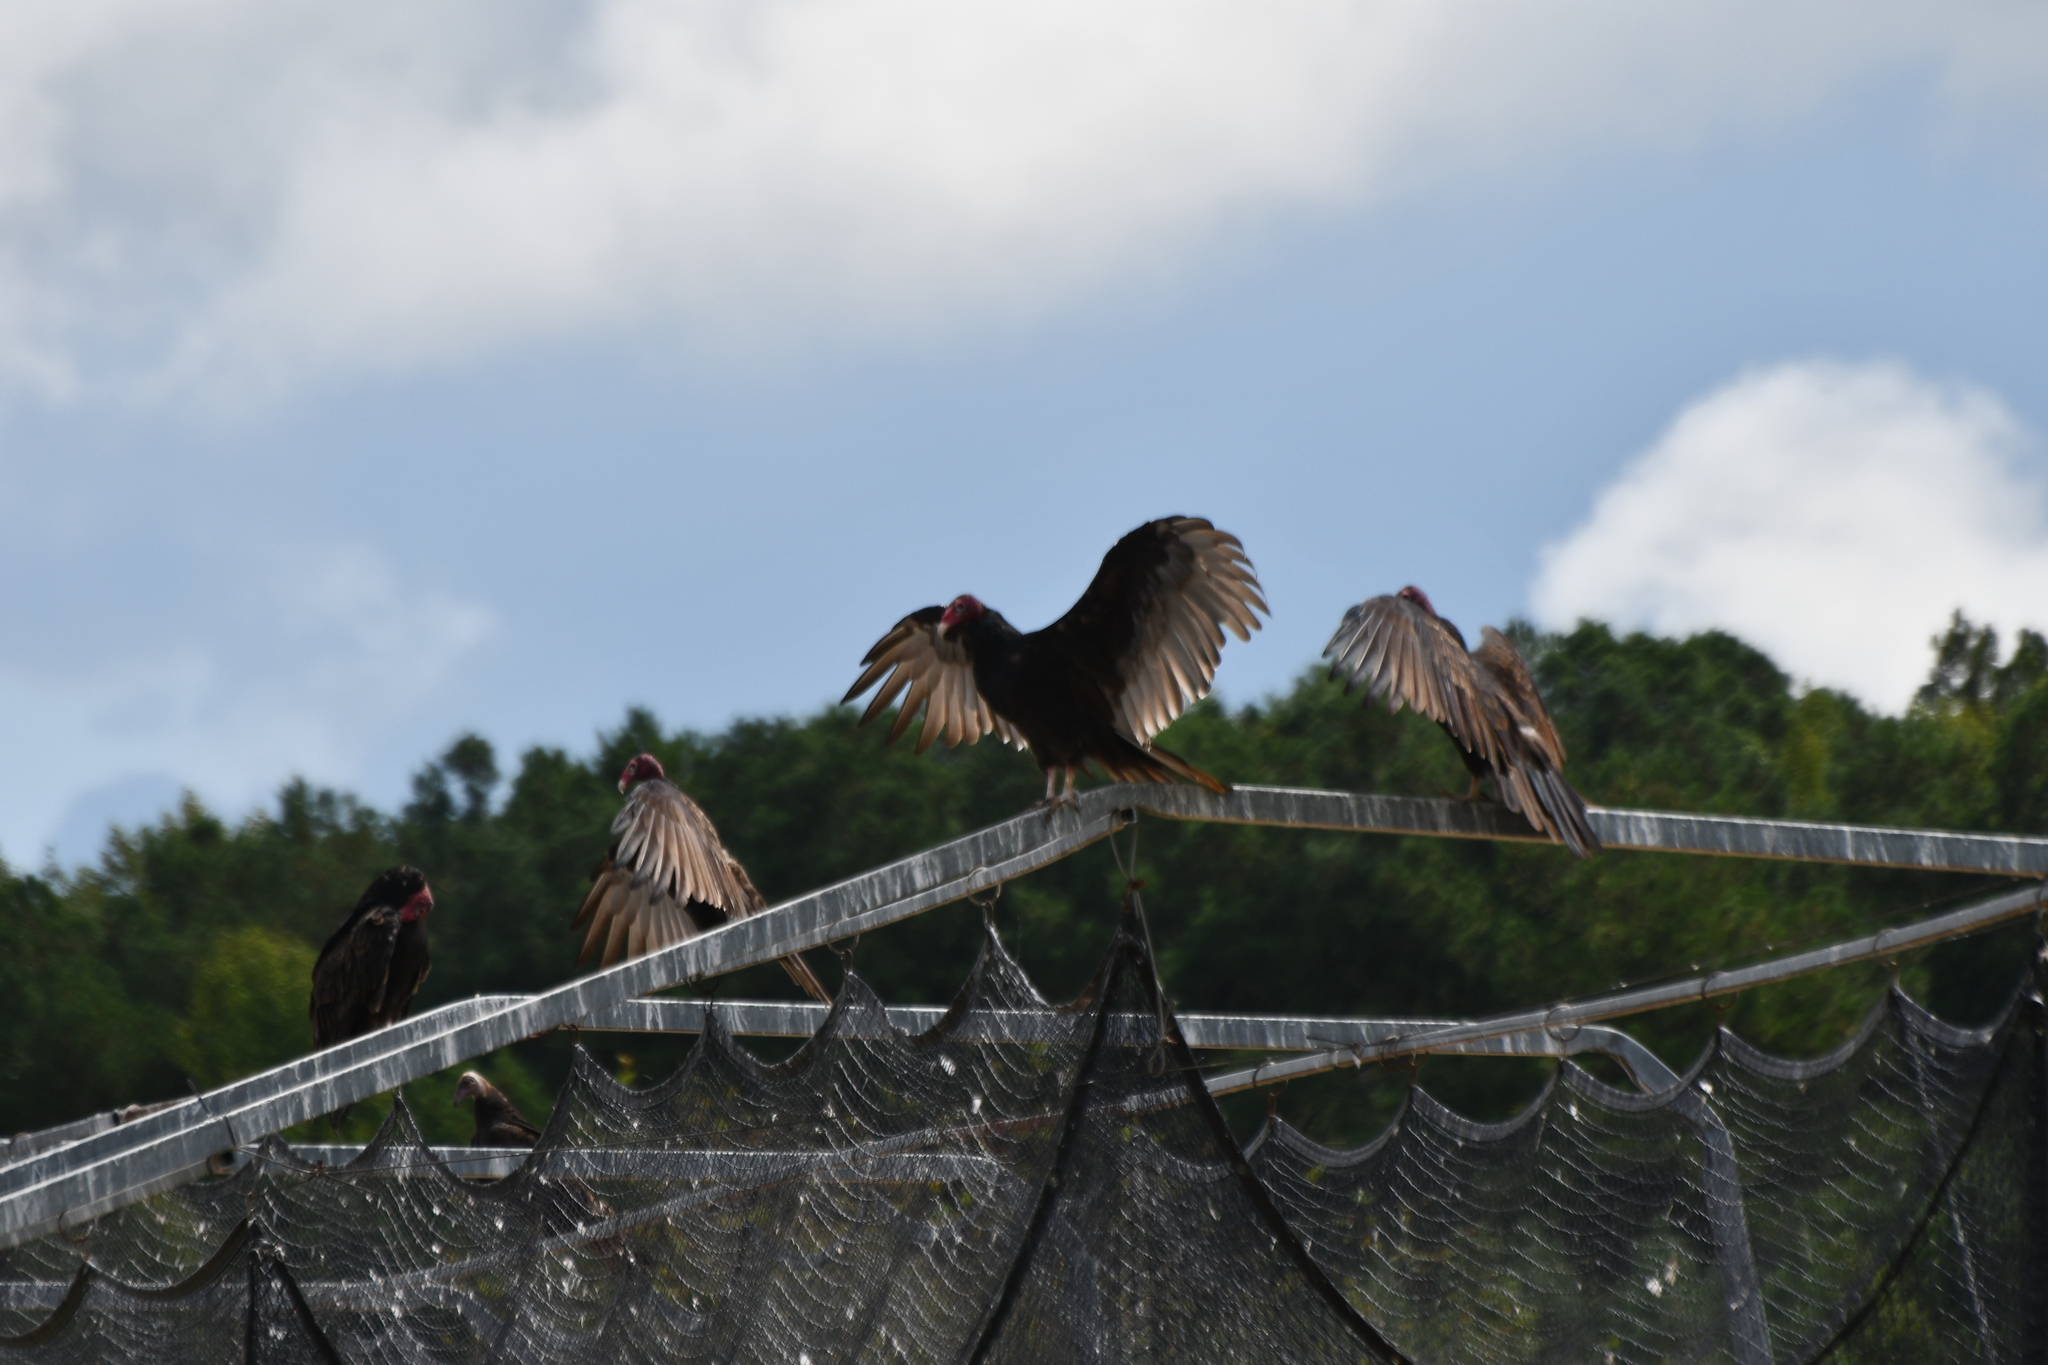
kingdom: Animalia
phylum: Chordata
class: Aves
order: Accipitriformes
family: Cathartidae
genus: Cathartes
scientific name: Cathartes aura
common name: Turkey vulture
